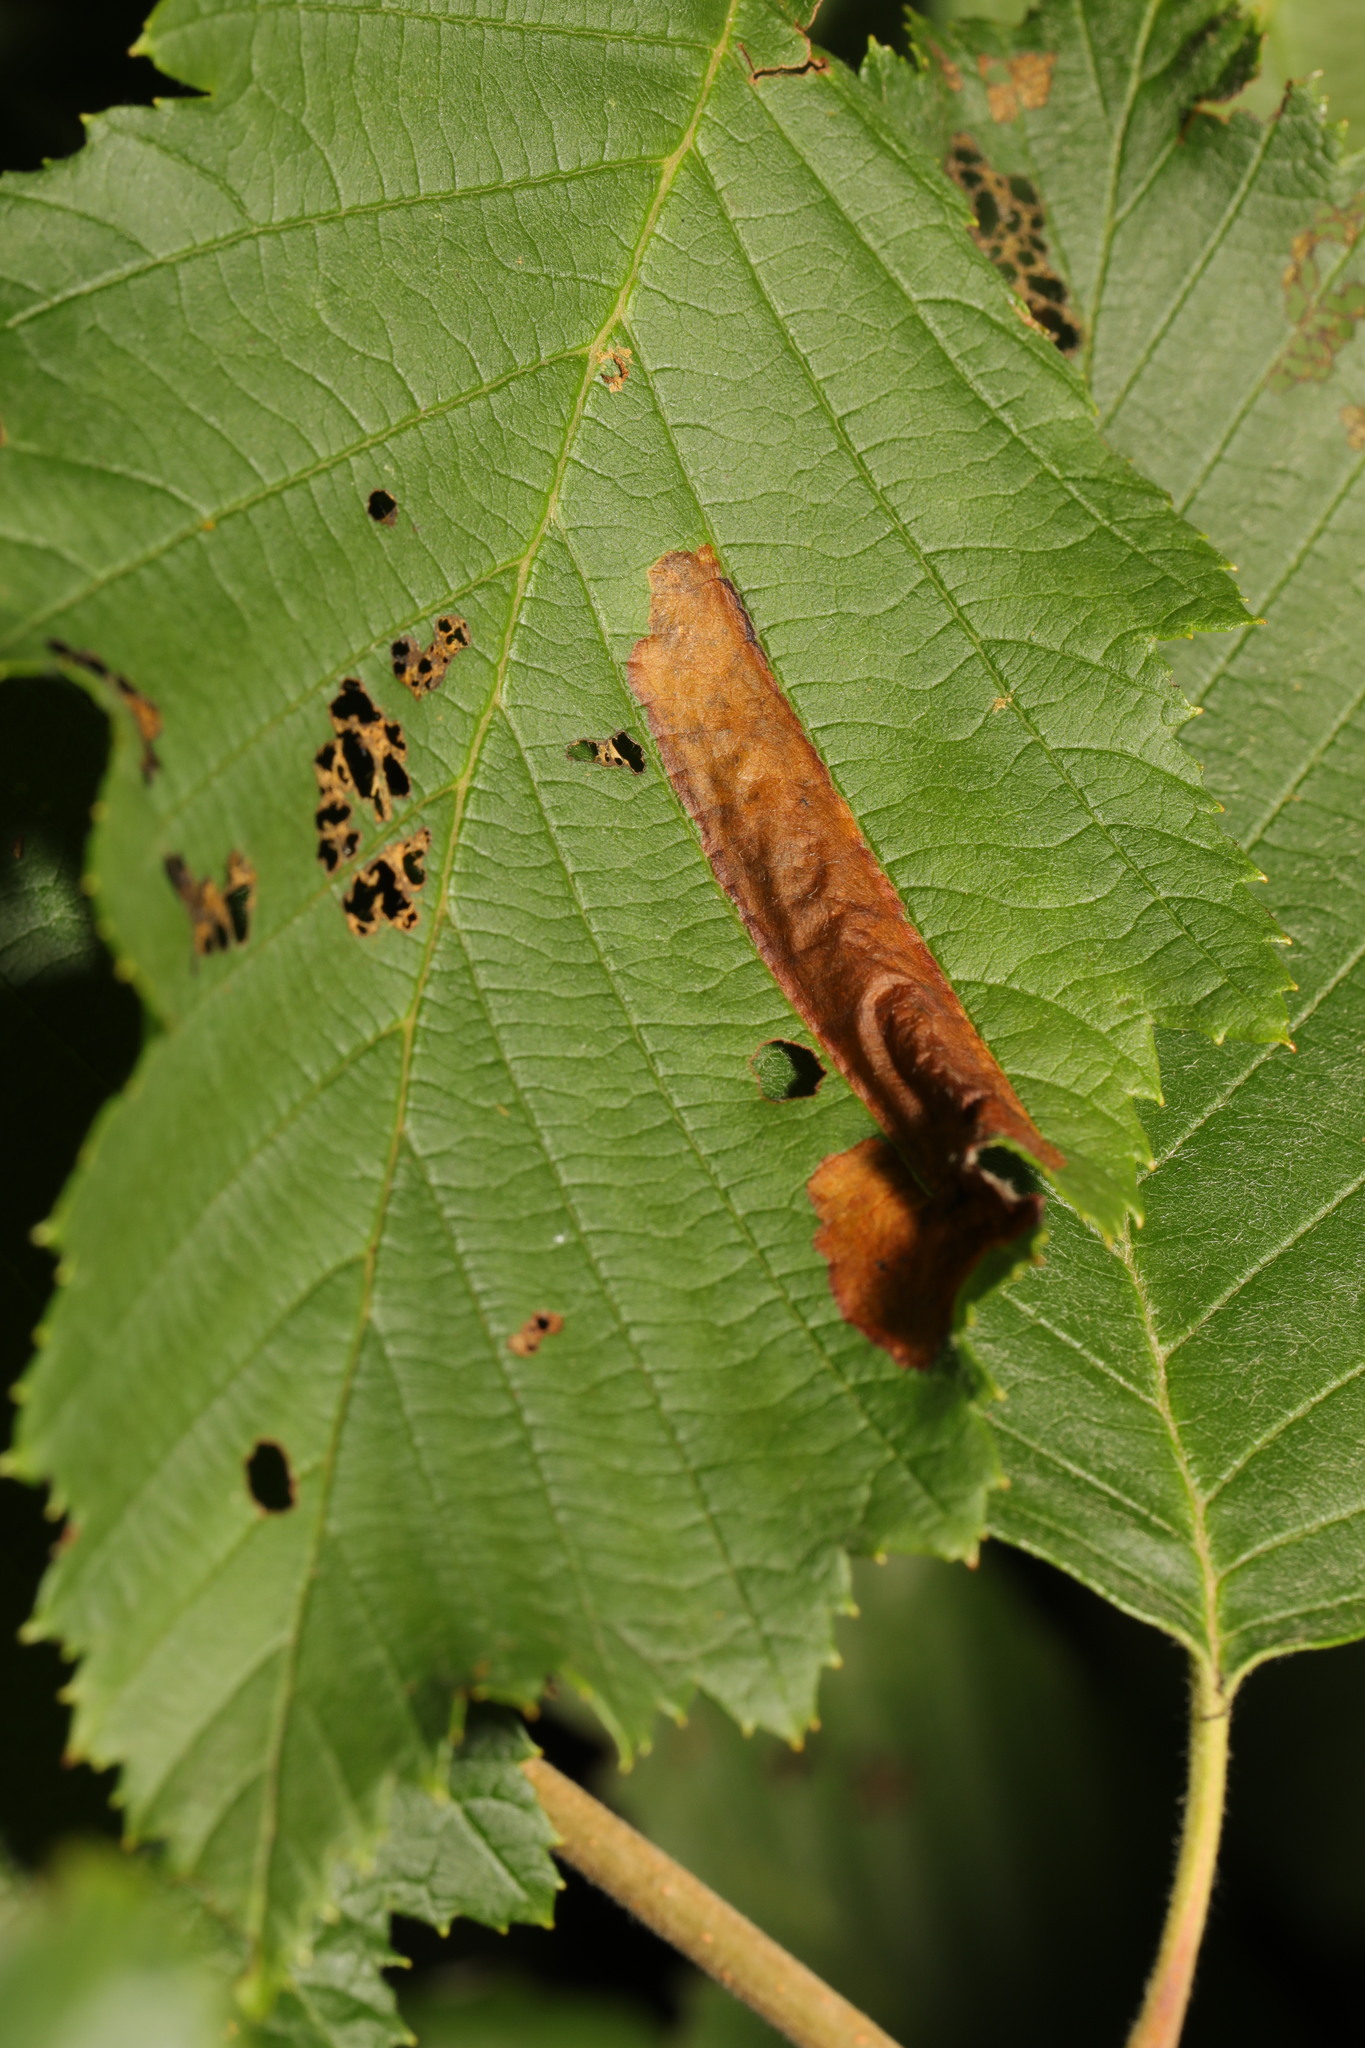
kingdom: Animalia
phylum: Arthropoda
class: Insecta
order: Hymenoptera
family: Tenthredinidae
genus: Fenusa
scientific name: Fenusa dohrnii
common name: European alder leafminer
